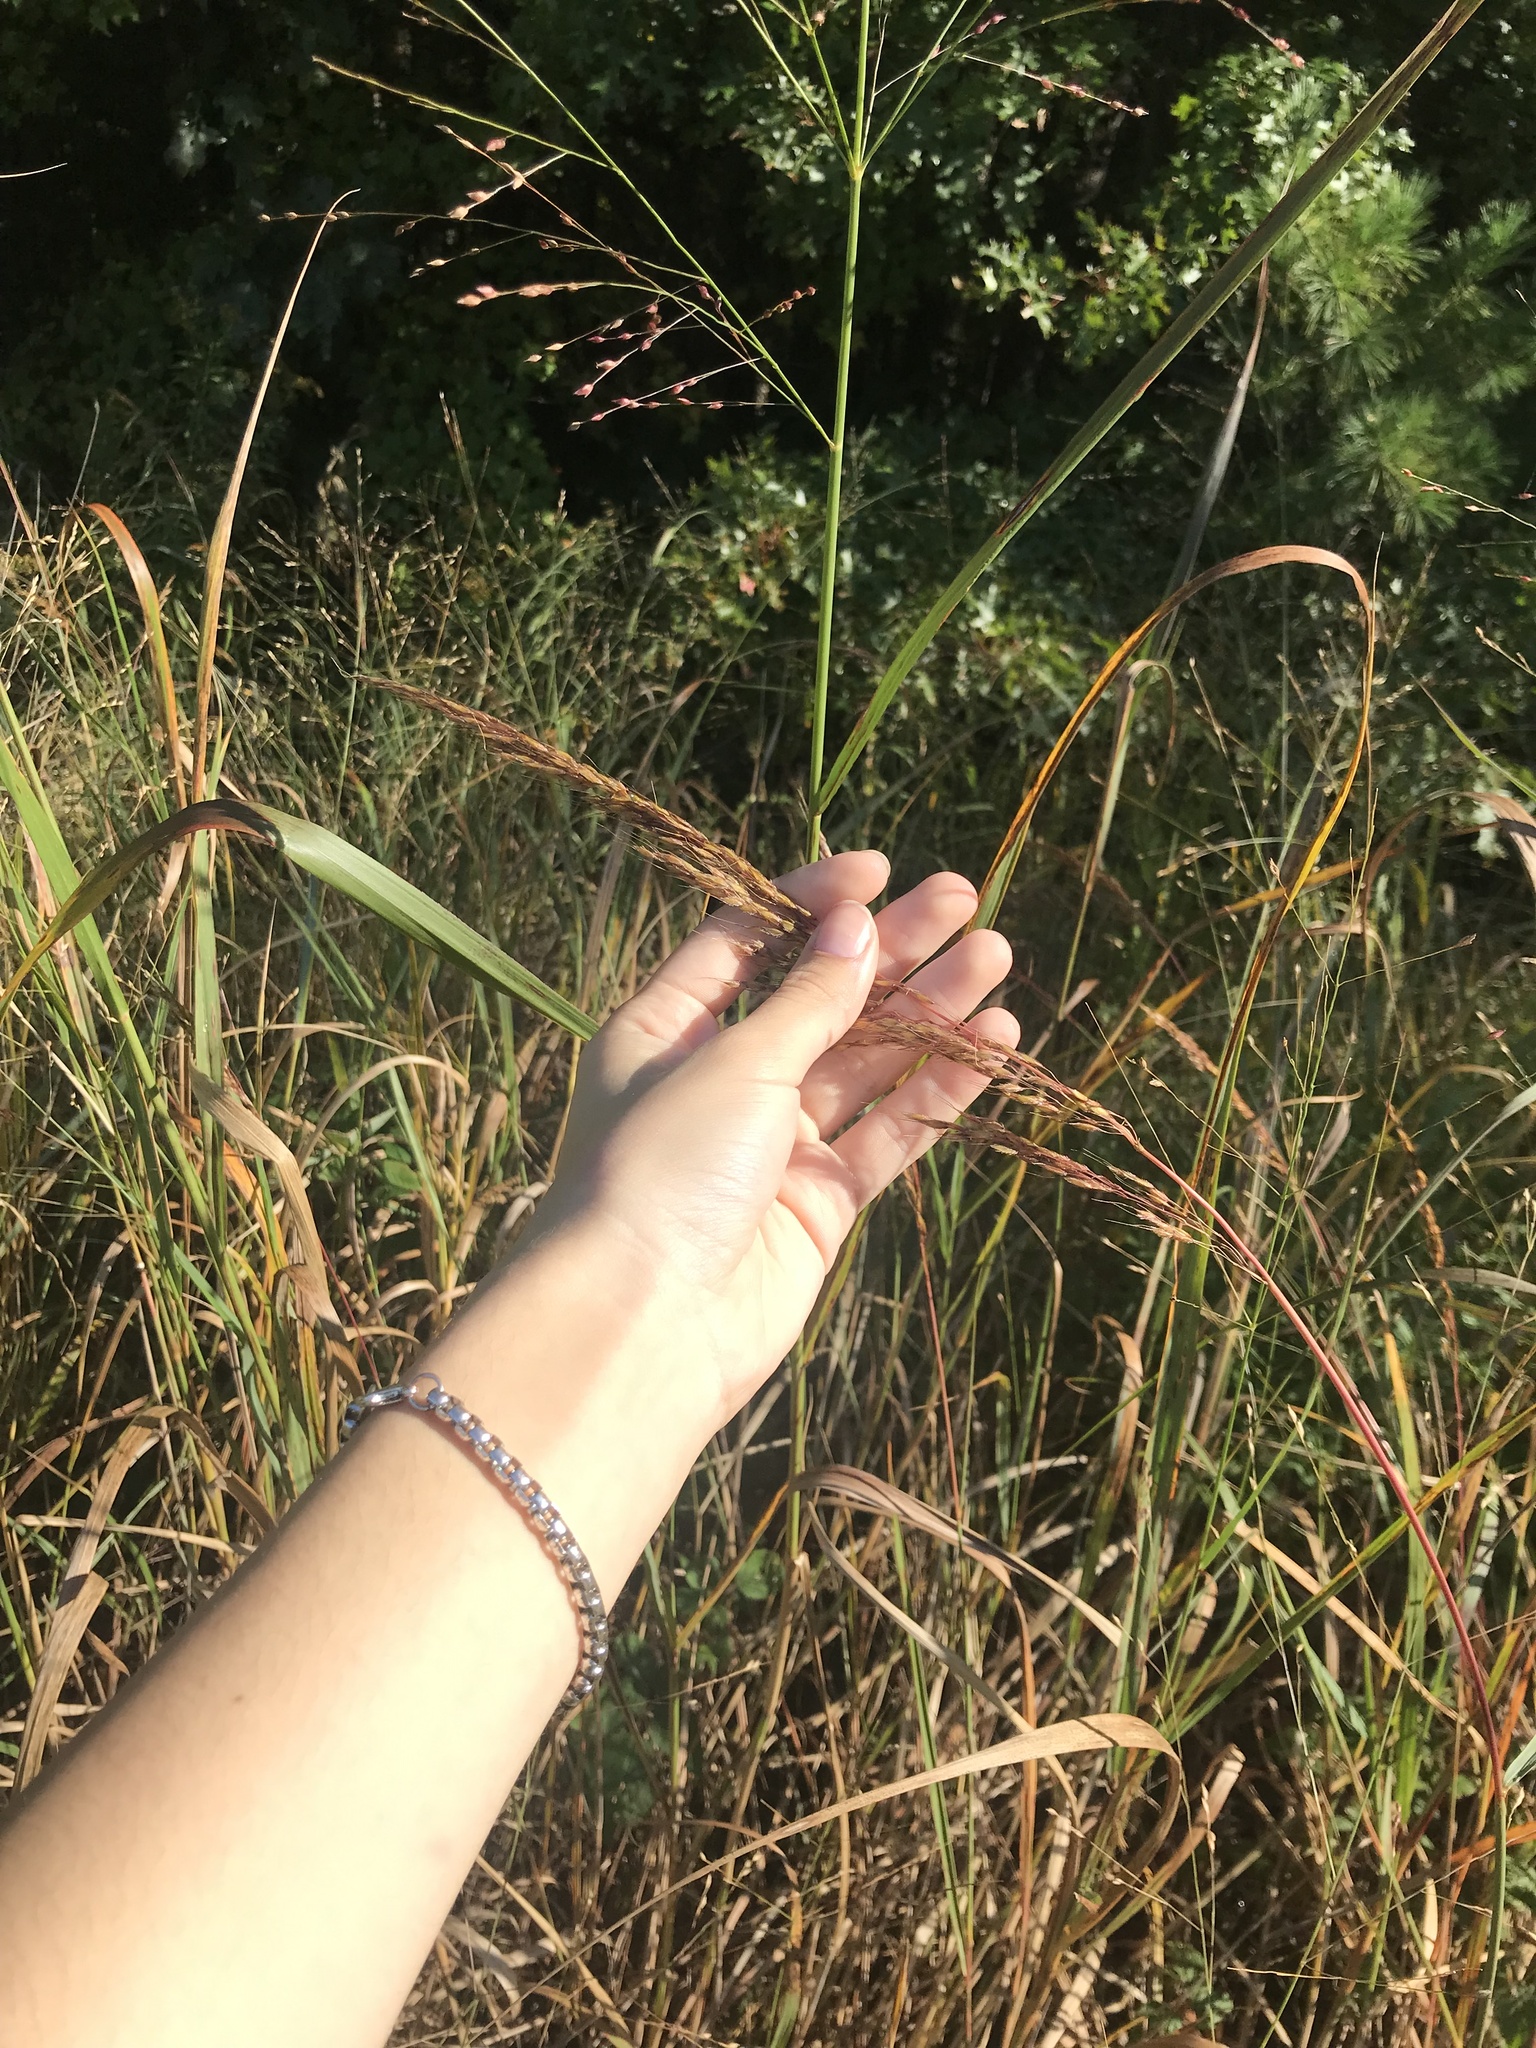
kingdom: Plantae
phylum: Tracheophyta
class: Liliopsida
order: Poales
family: Poaceae
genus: Sorghastrum
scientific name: Sorghastrum nutans
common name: Indian grass
